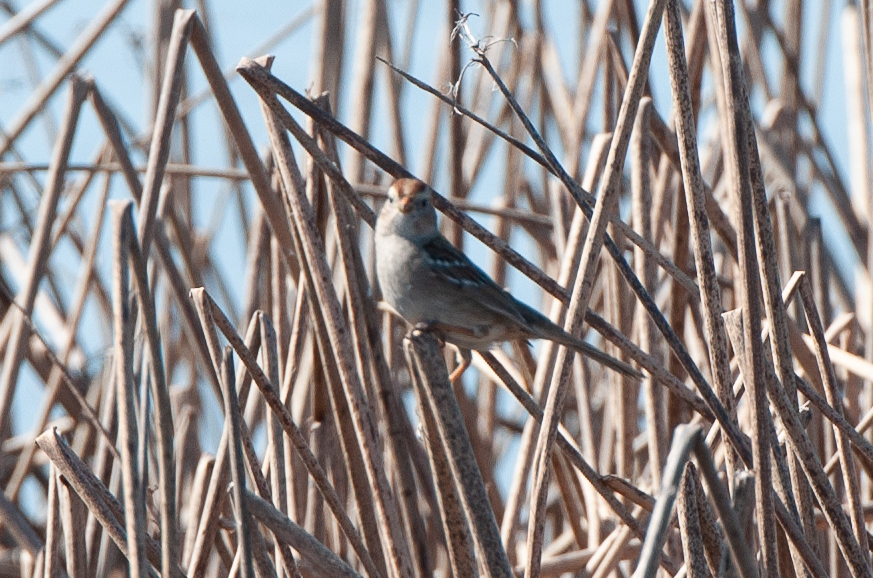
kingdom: Animalia
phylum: Chordata
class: Aves
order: Passeriformes
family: Passerellidae
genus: Zonotrichia
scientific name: Zonotrichia leucophrys
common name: White-crowned sparrow
